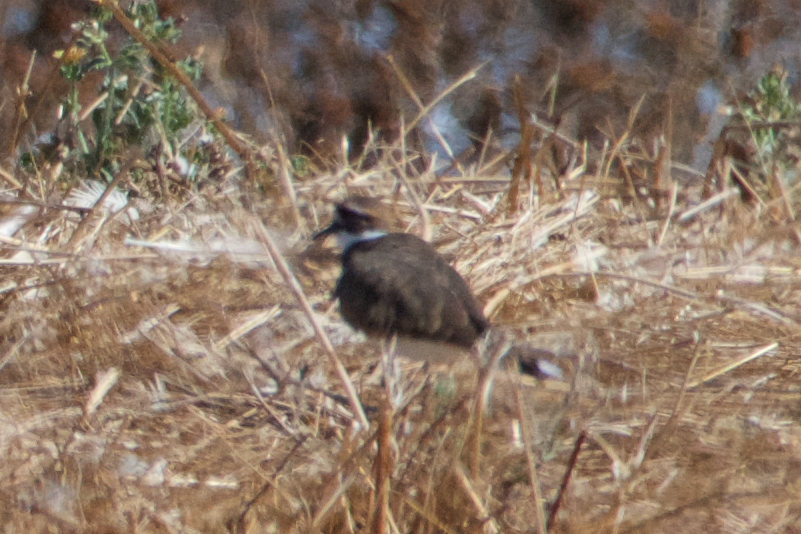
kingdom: Animalia
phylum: Chordata
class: Aves
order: Charadriiformes
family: Charadriidae
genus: Charadrius
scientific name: Charadrius vociferus
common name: Killdeer
